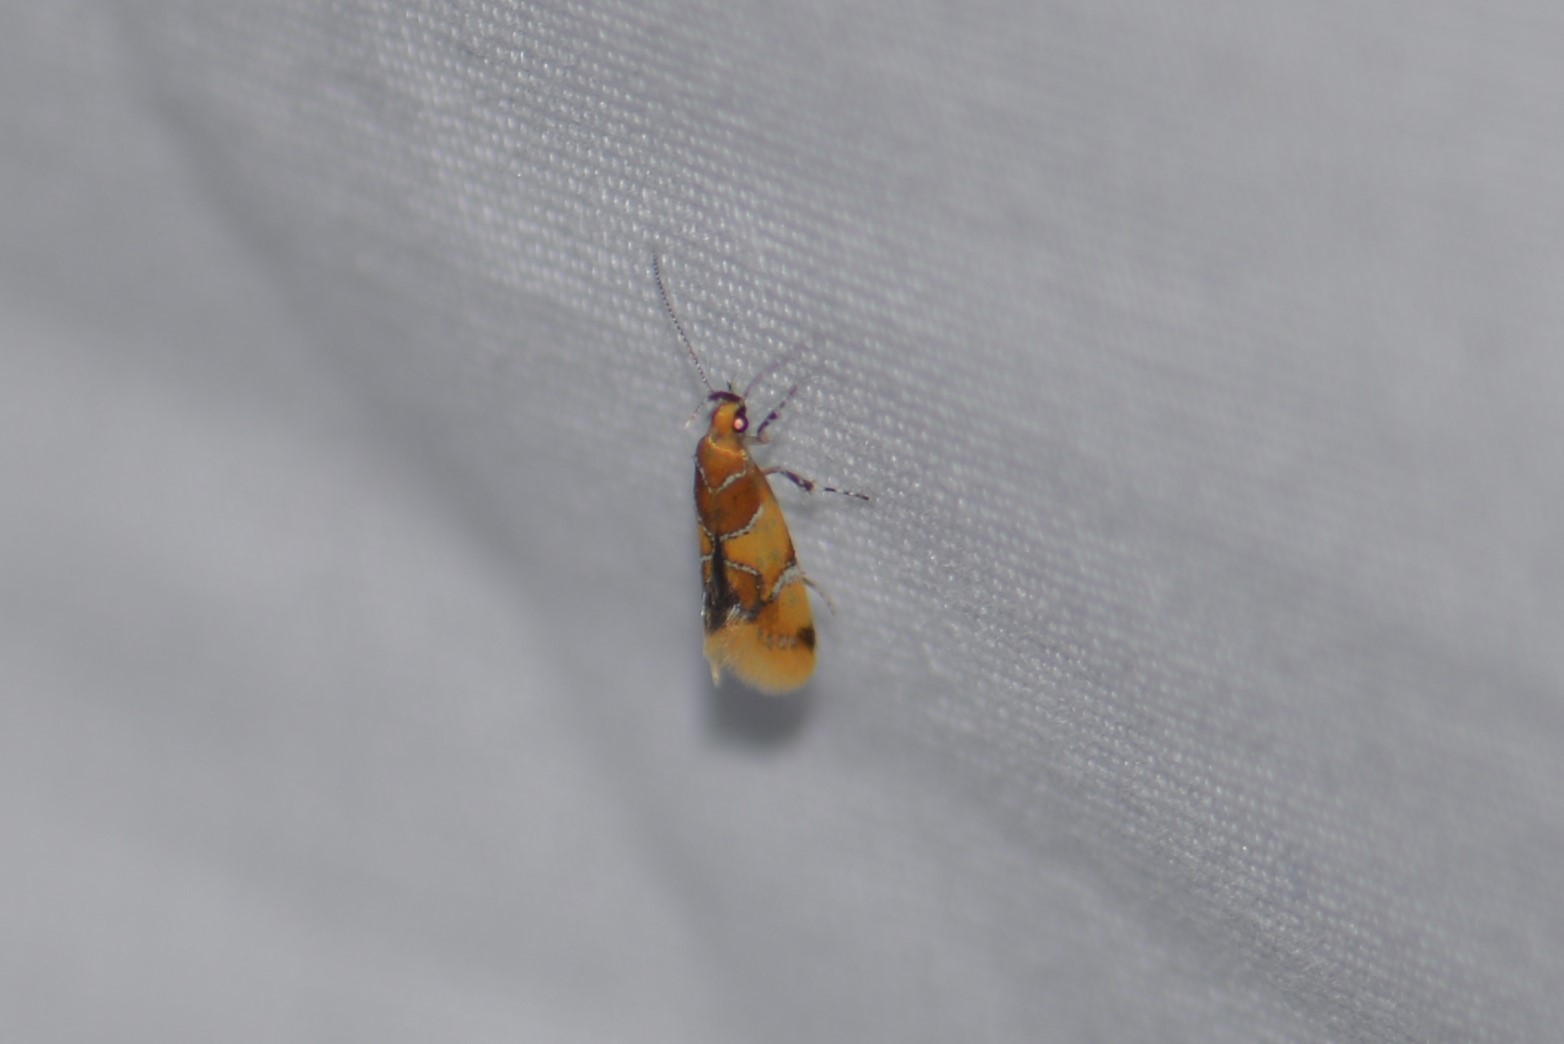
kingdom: Animalia
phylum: Arthropoda
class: Insecta
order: Lepidoptera
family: Oecophoridae
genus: Callima
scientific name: Callima argenticinctella
